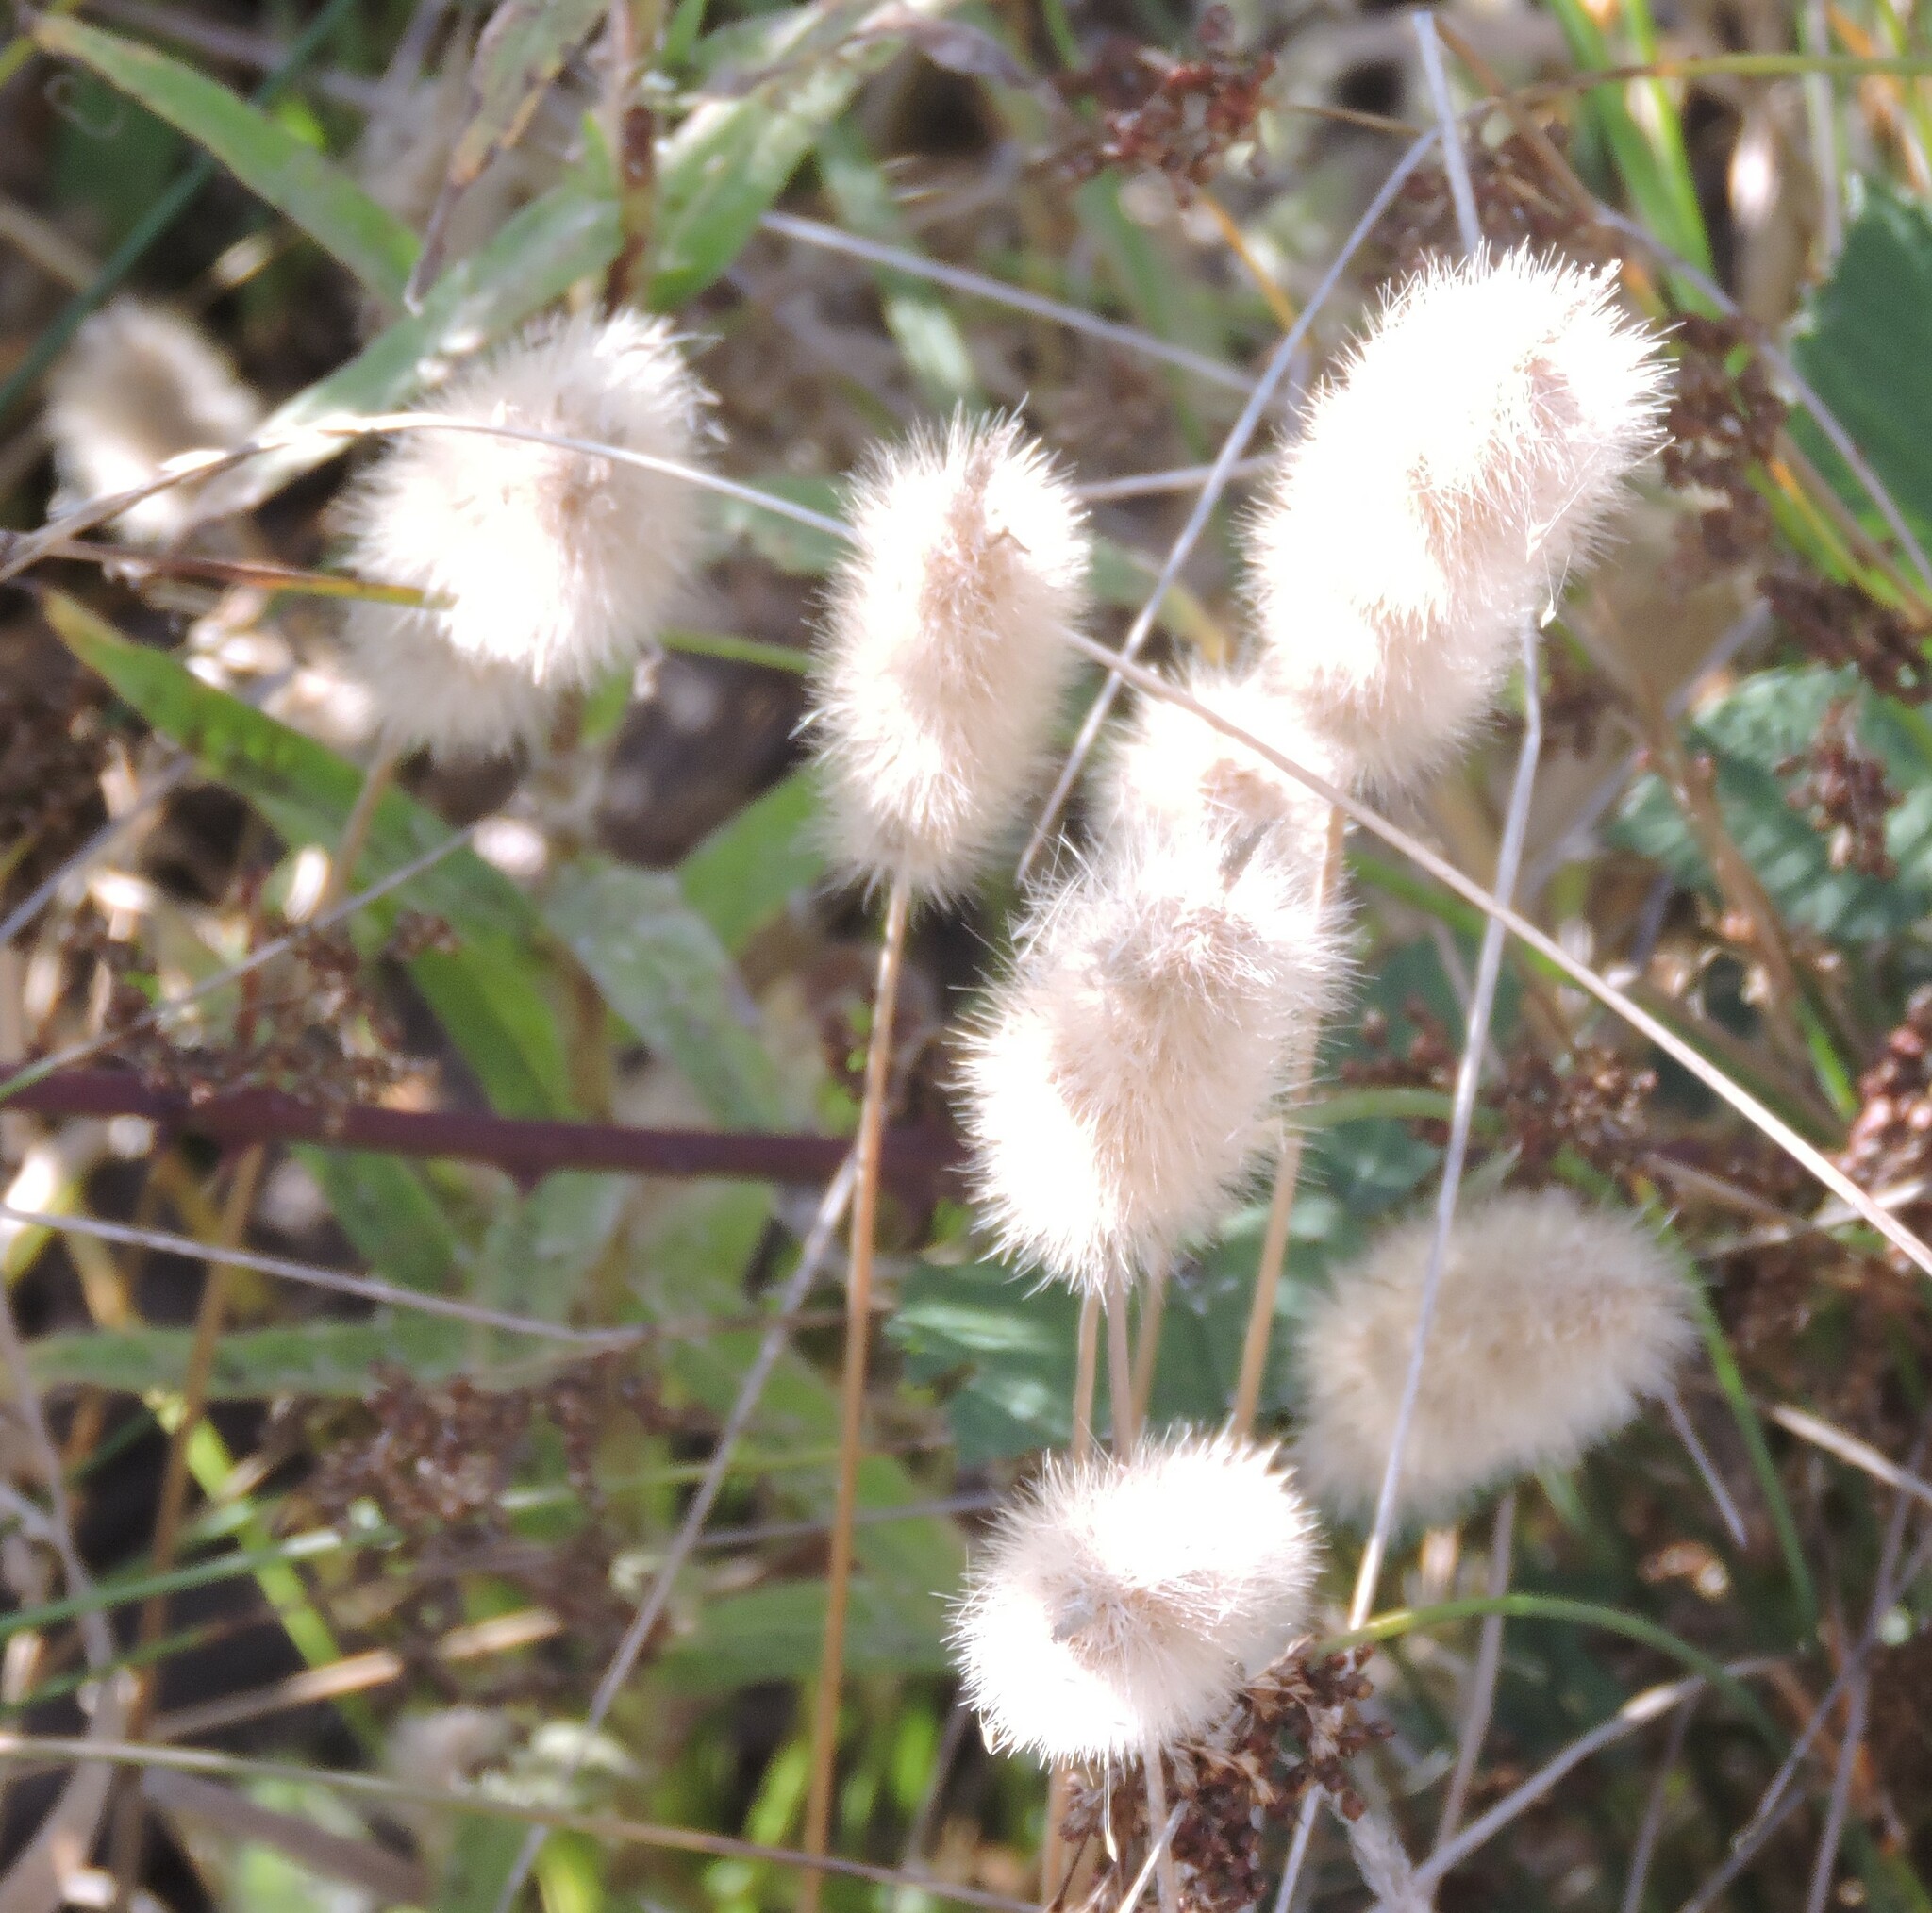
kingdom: Plantae
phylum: Tracheophyta
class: Liliopsida
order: Poales
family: Poaceae
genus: Lagurus
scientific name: Lagurus ovatus
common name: Hare's-tail
